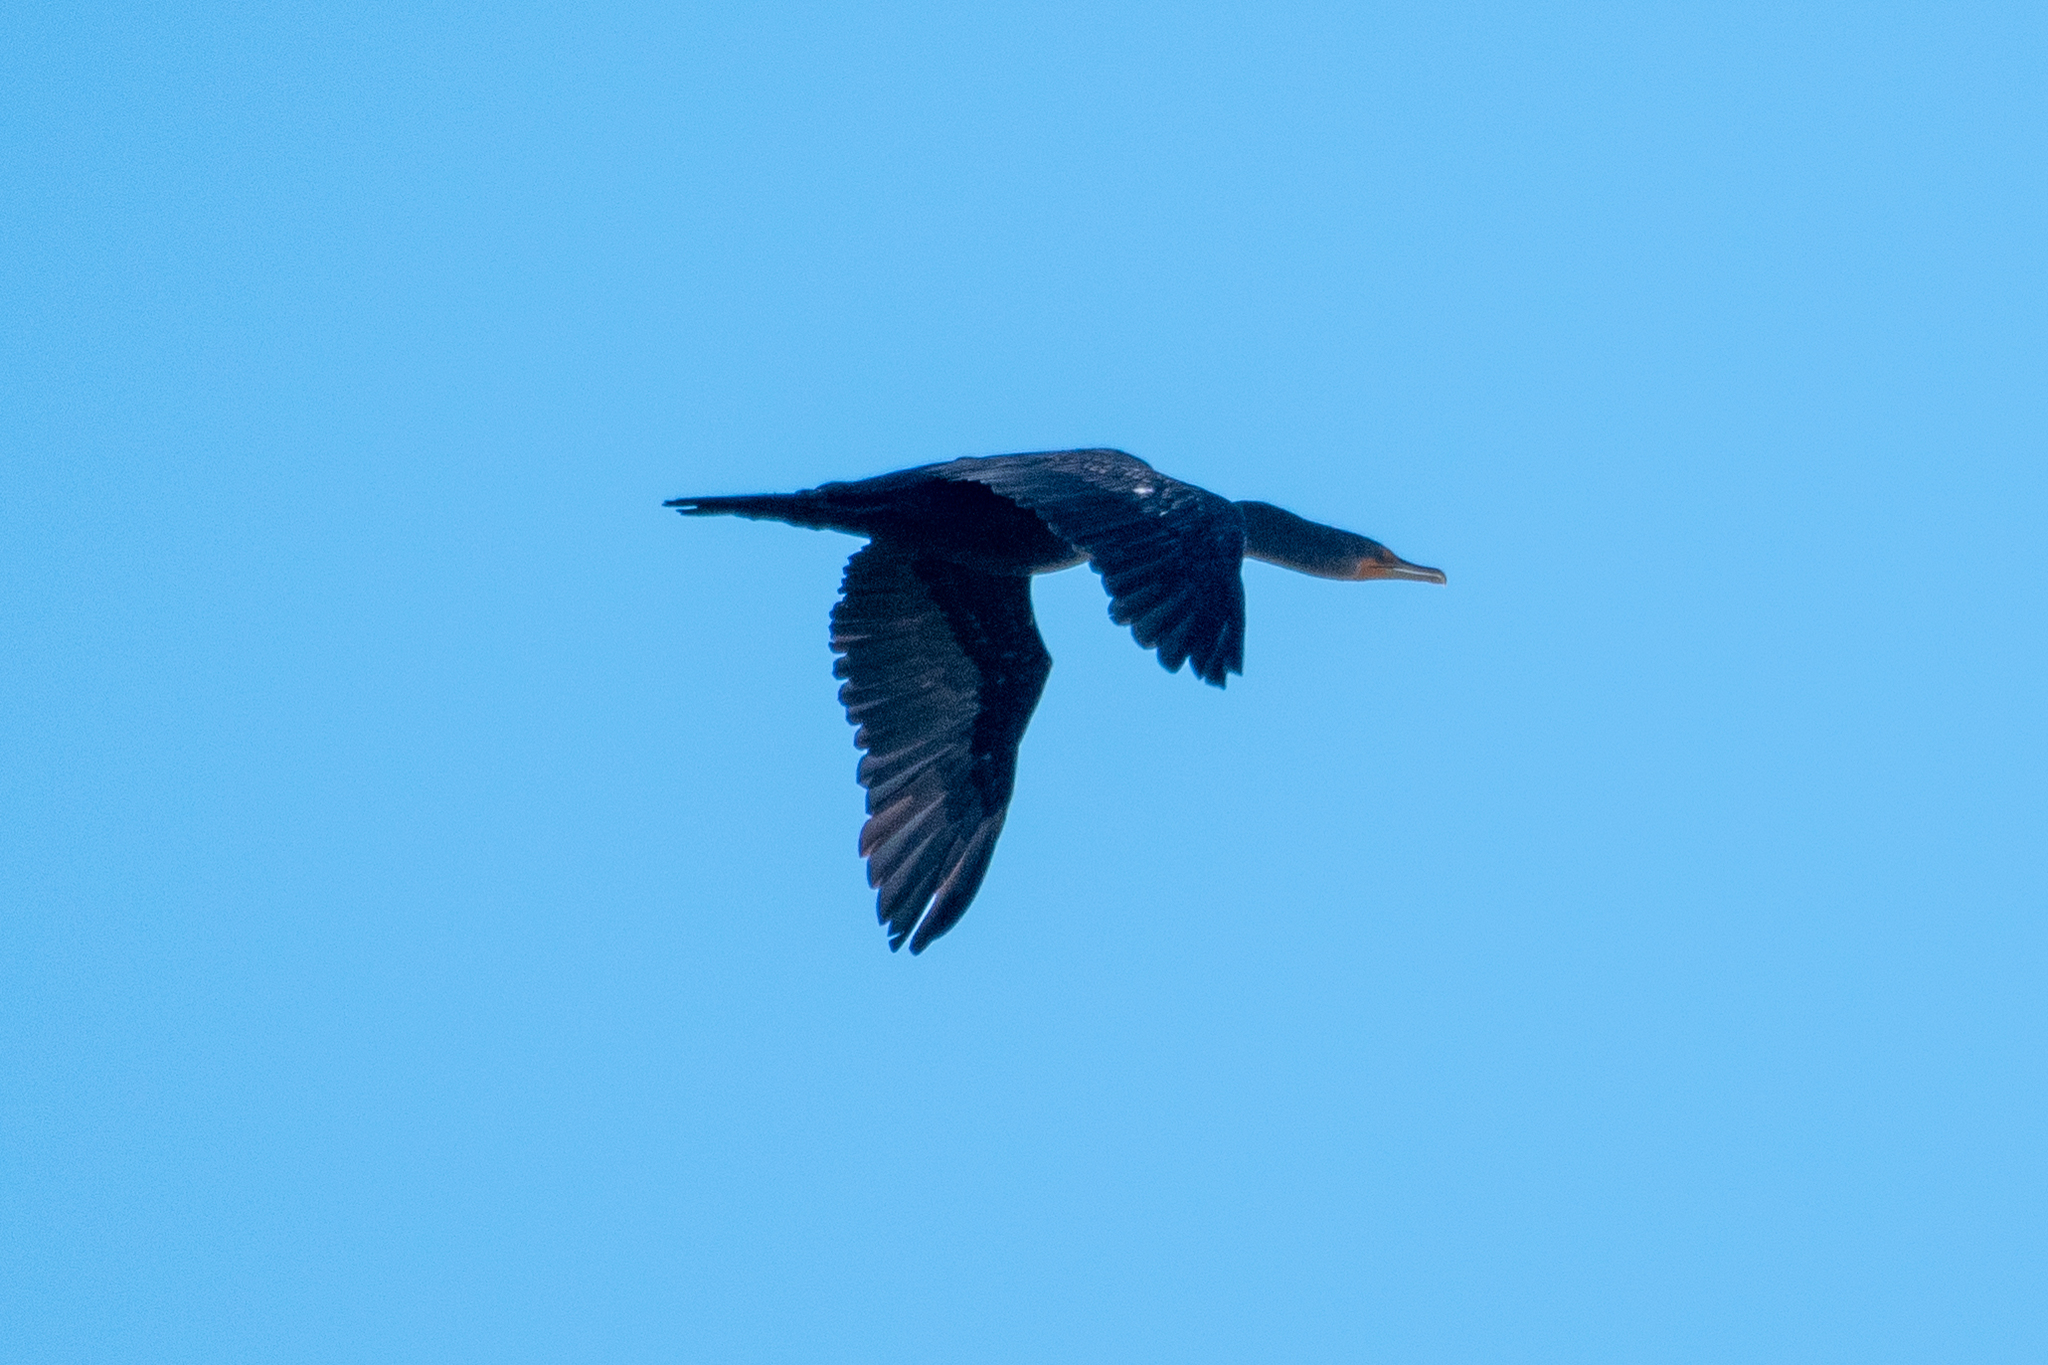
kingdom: Animalia
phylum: Chordata
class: Aves
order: Suliformes
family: Phalacrocoracidae
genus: Phalacrocorax
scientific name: Phalacrocorax auritus
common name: Double-crested cormorant
